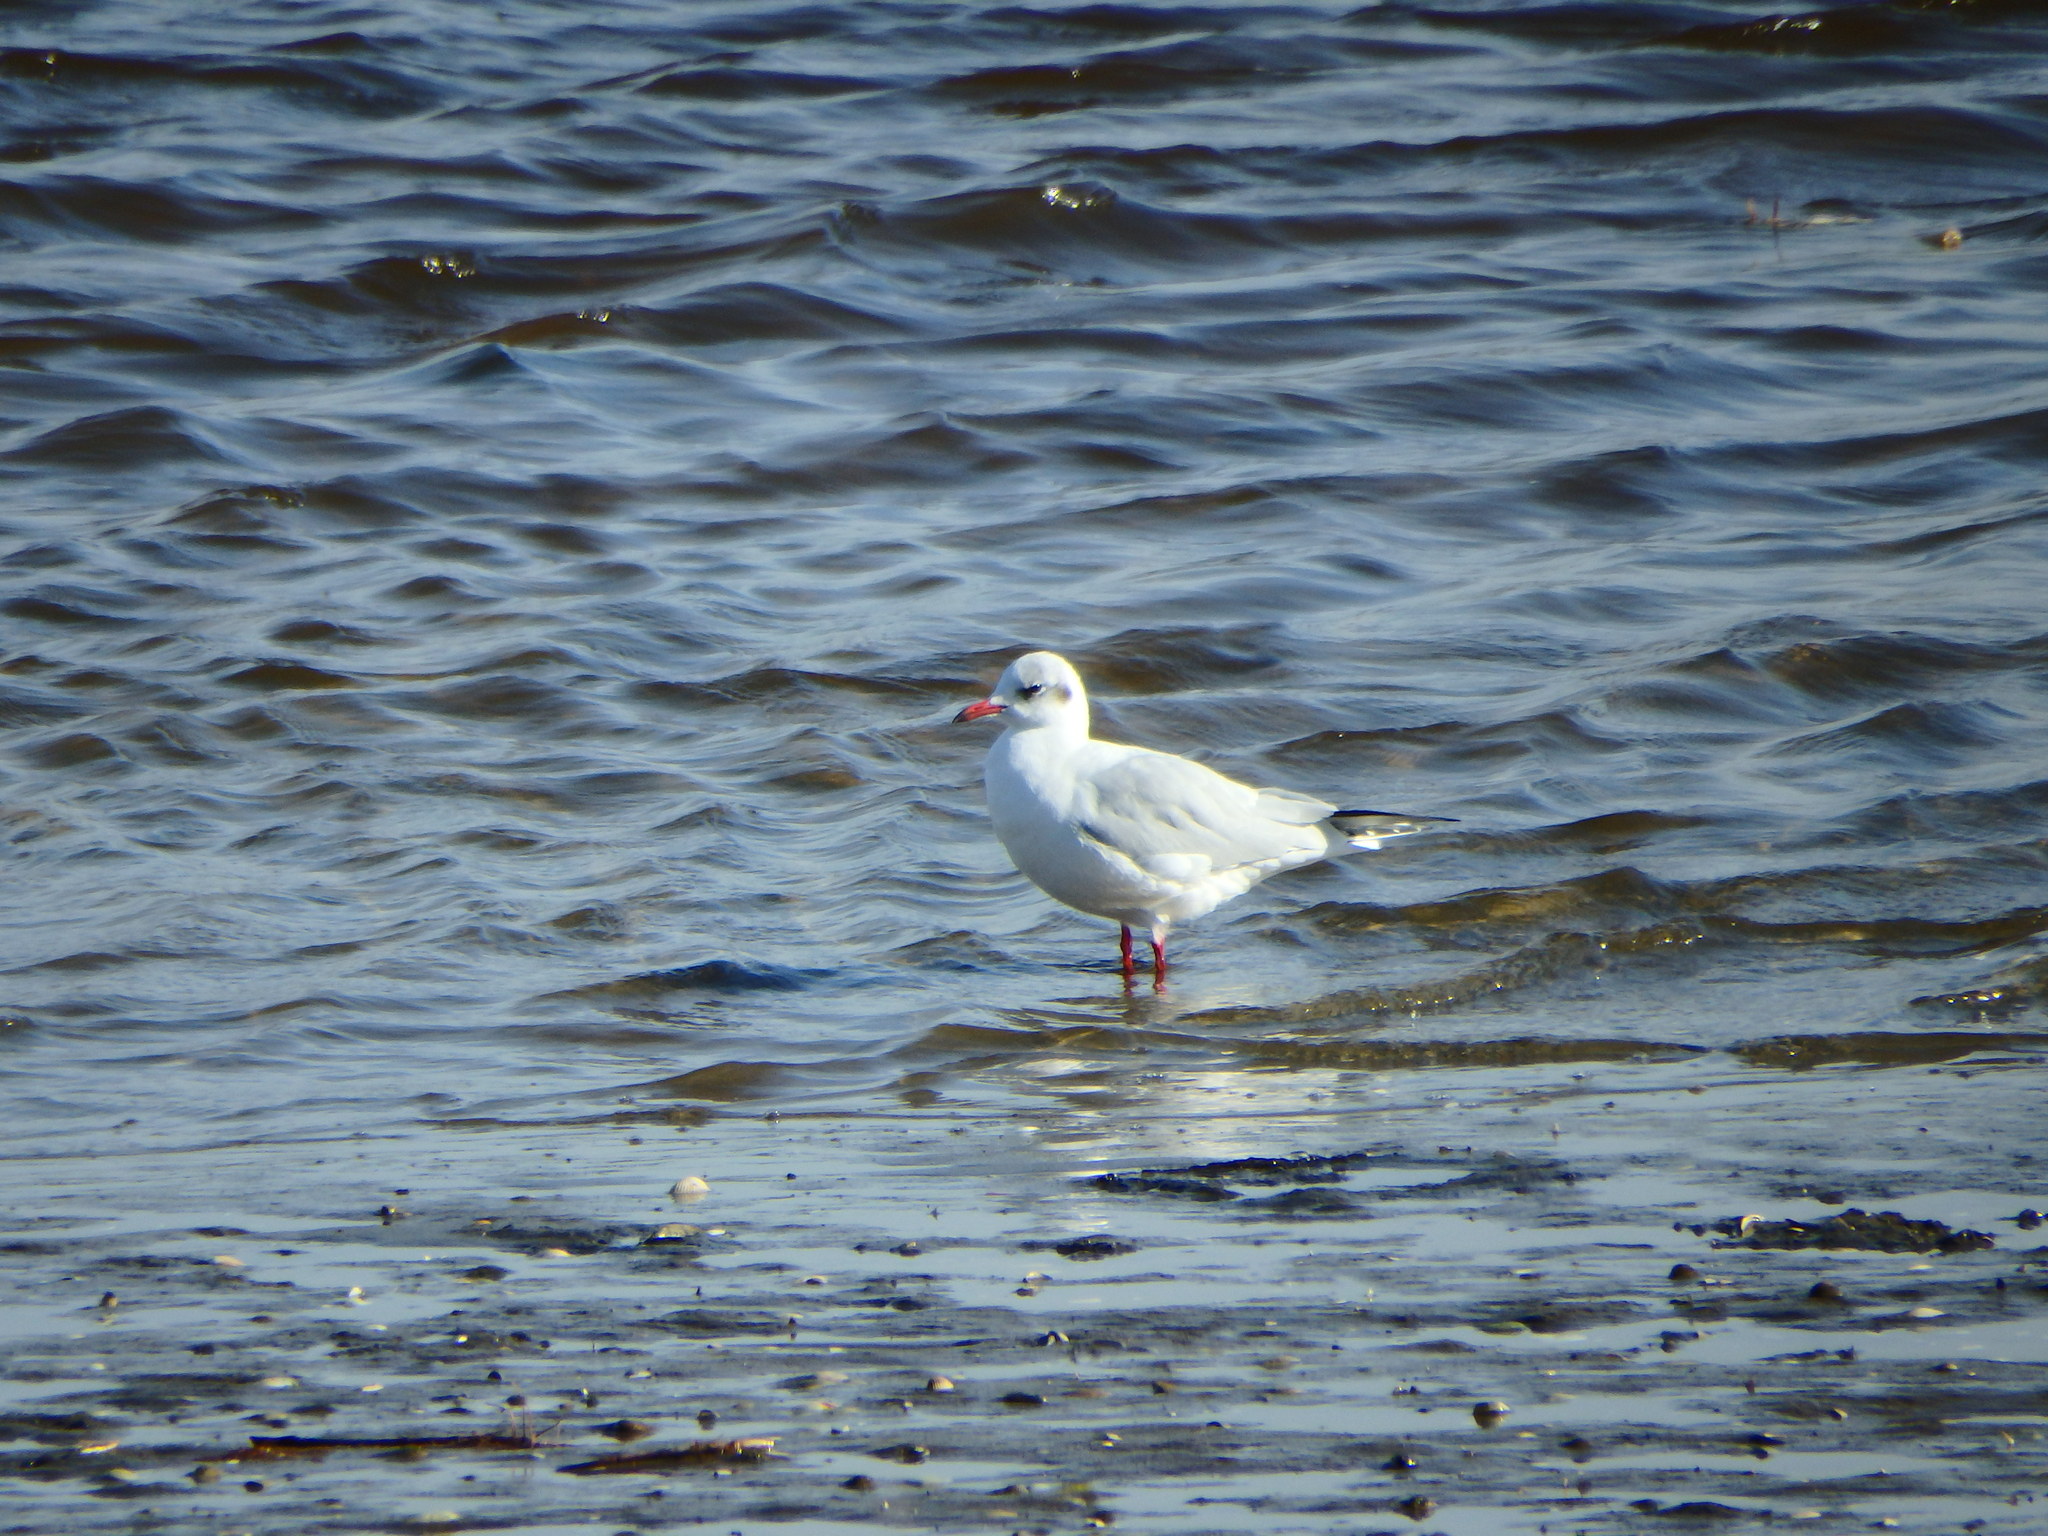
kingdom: Animalia
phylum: Chordata
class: Aves
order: Charadriiformes
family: Laridae
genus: Chroicocephalus
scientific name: Chroicocephalus ridibundus
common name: Black-headed gull
